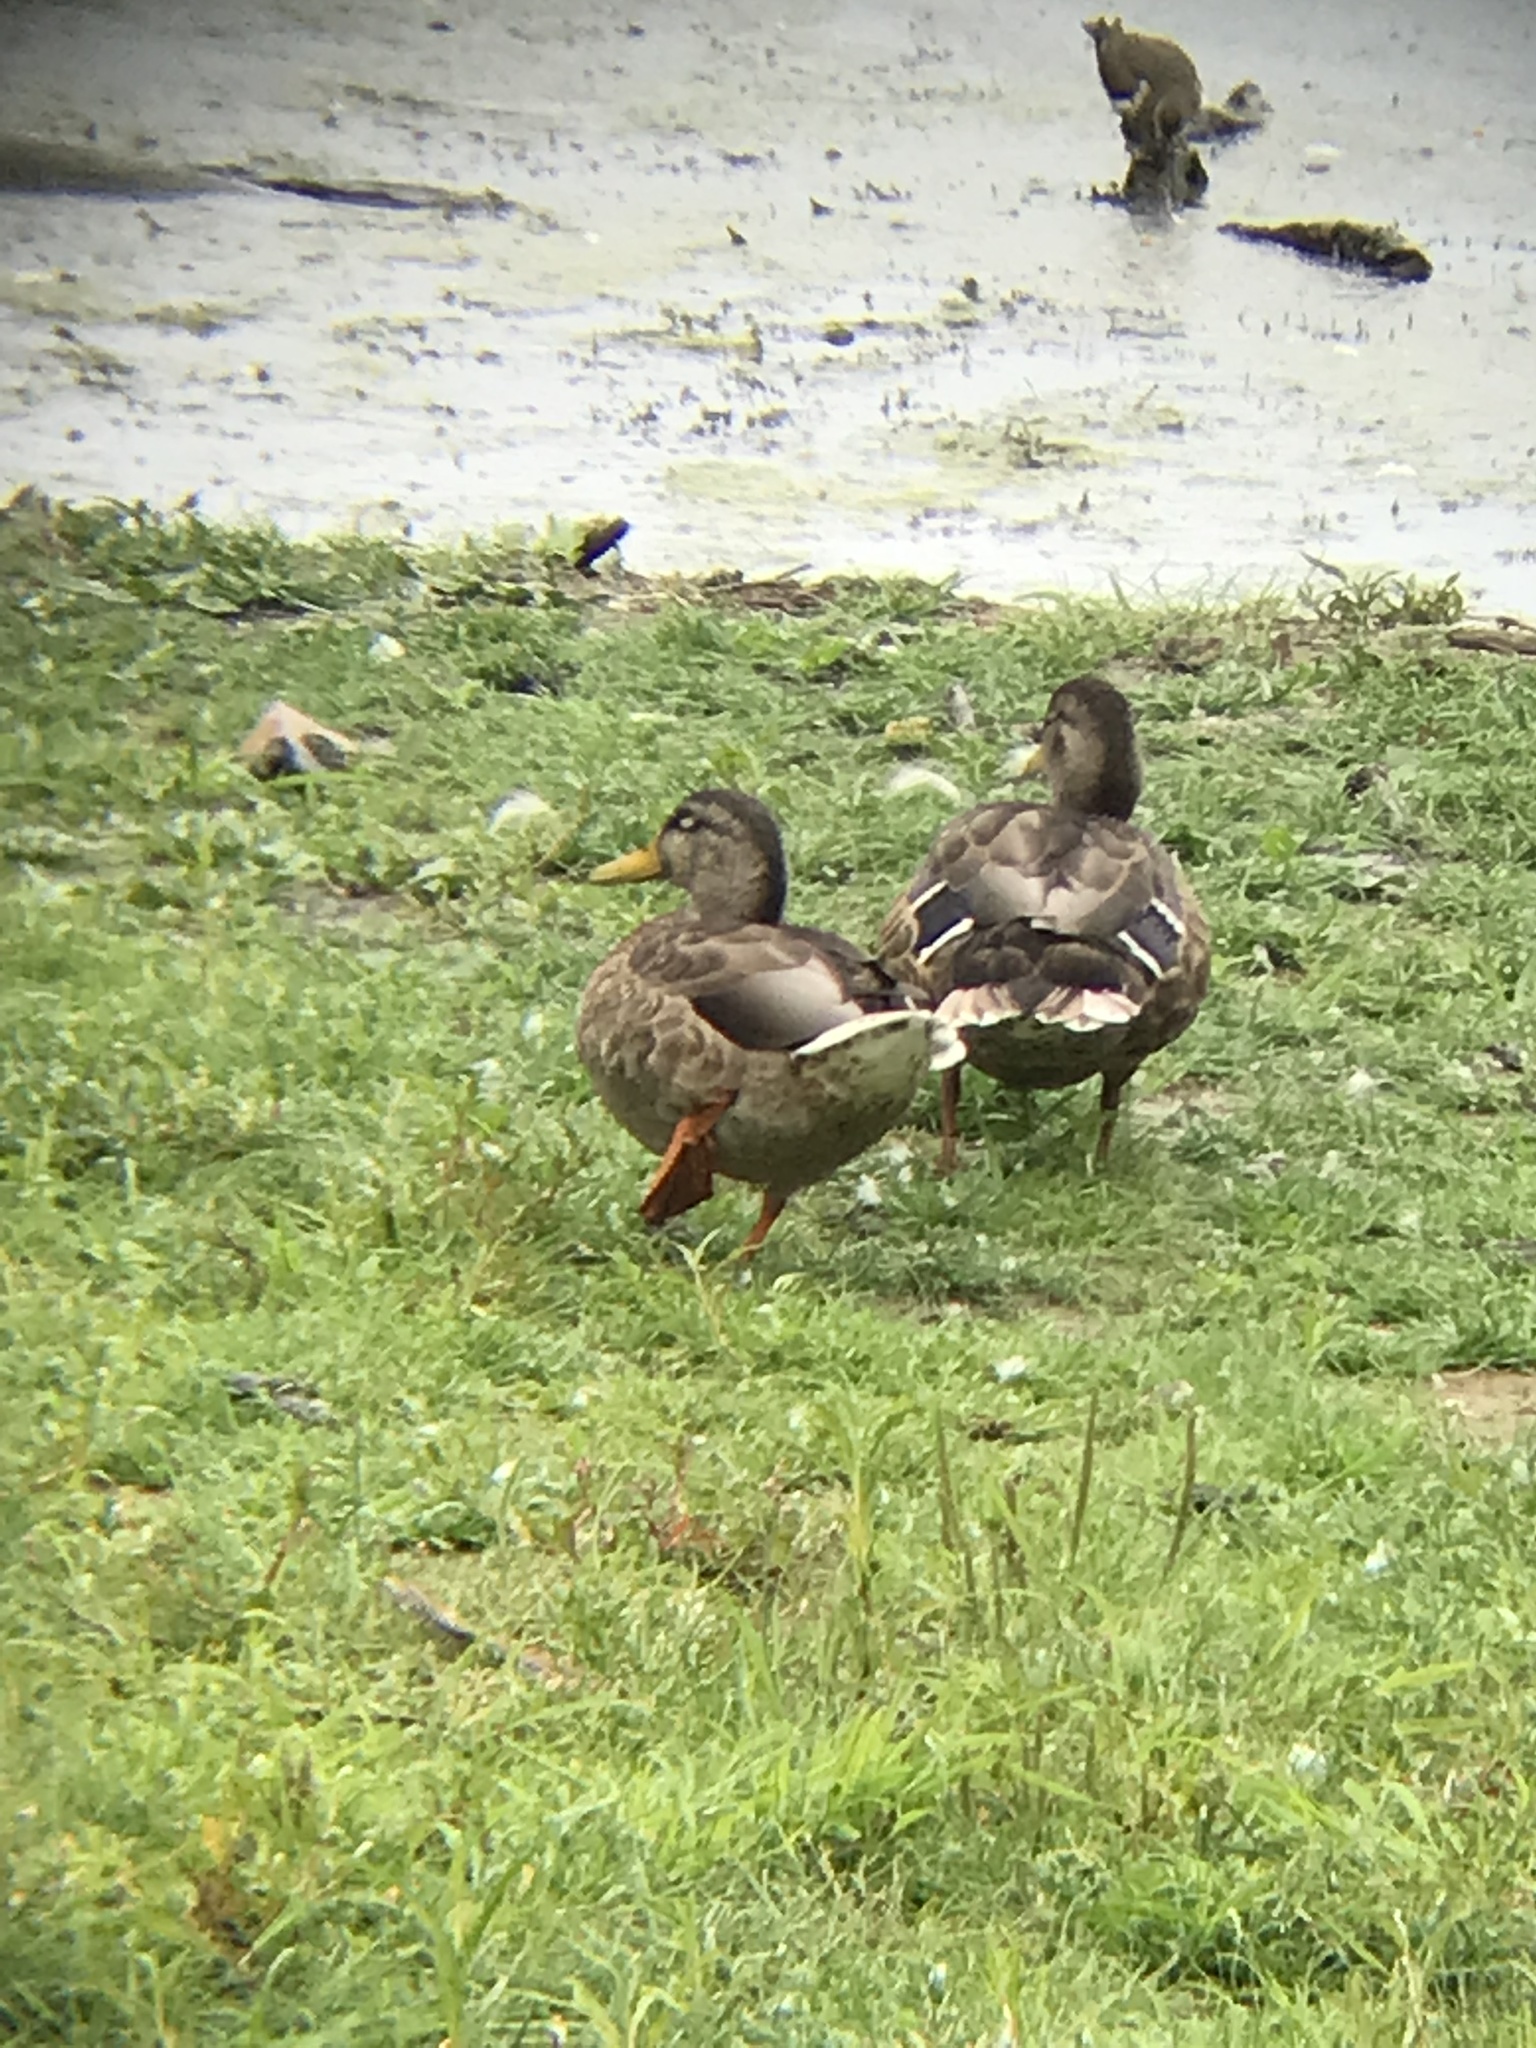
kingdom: Animalia
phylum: Chordata
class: Aves
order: Anseriformes
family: Anatidae
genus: Anas
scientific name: Anas platyrhynchos
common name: Mallard
